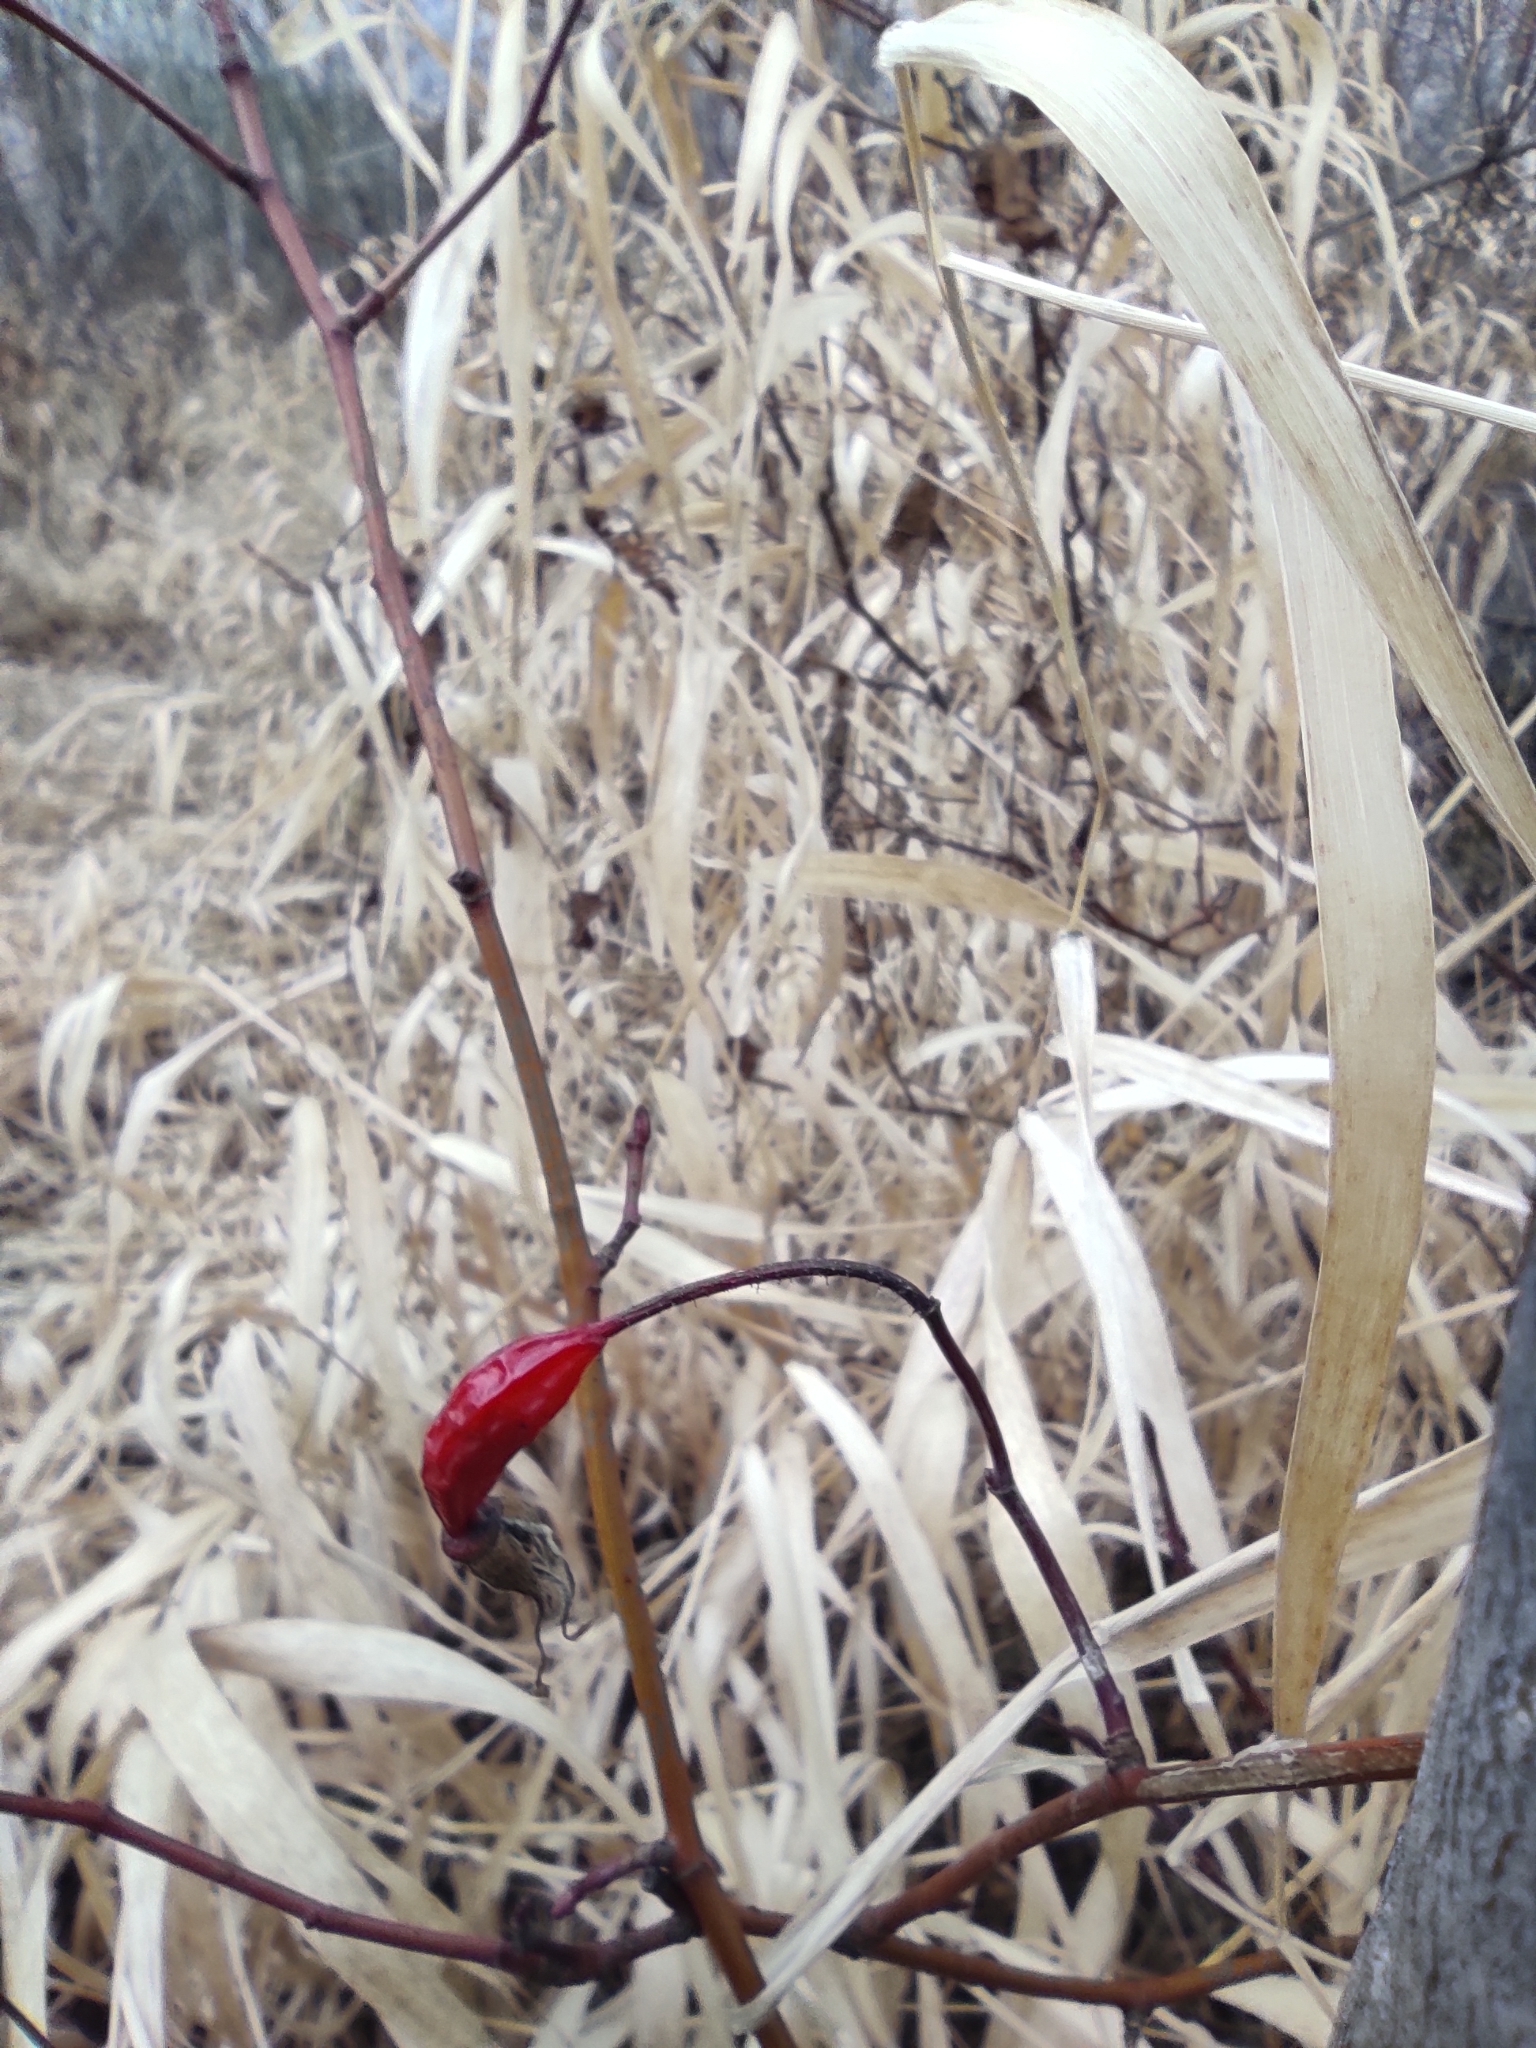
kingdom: Plantae
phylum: Tracheophyta
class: Magnoliopsida
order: Rosales
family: Rosaceae
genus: Rosa
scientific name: Rosa acicularis
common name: Prickly rose
